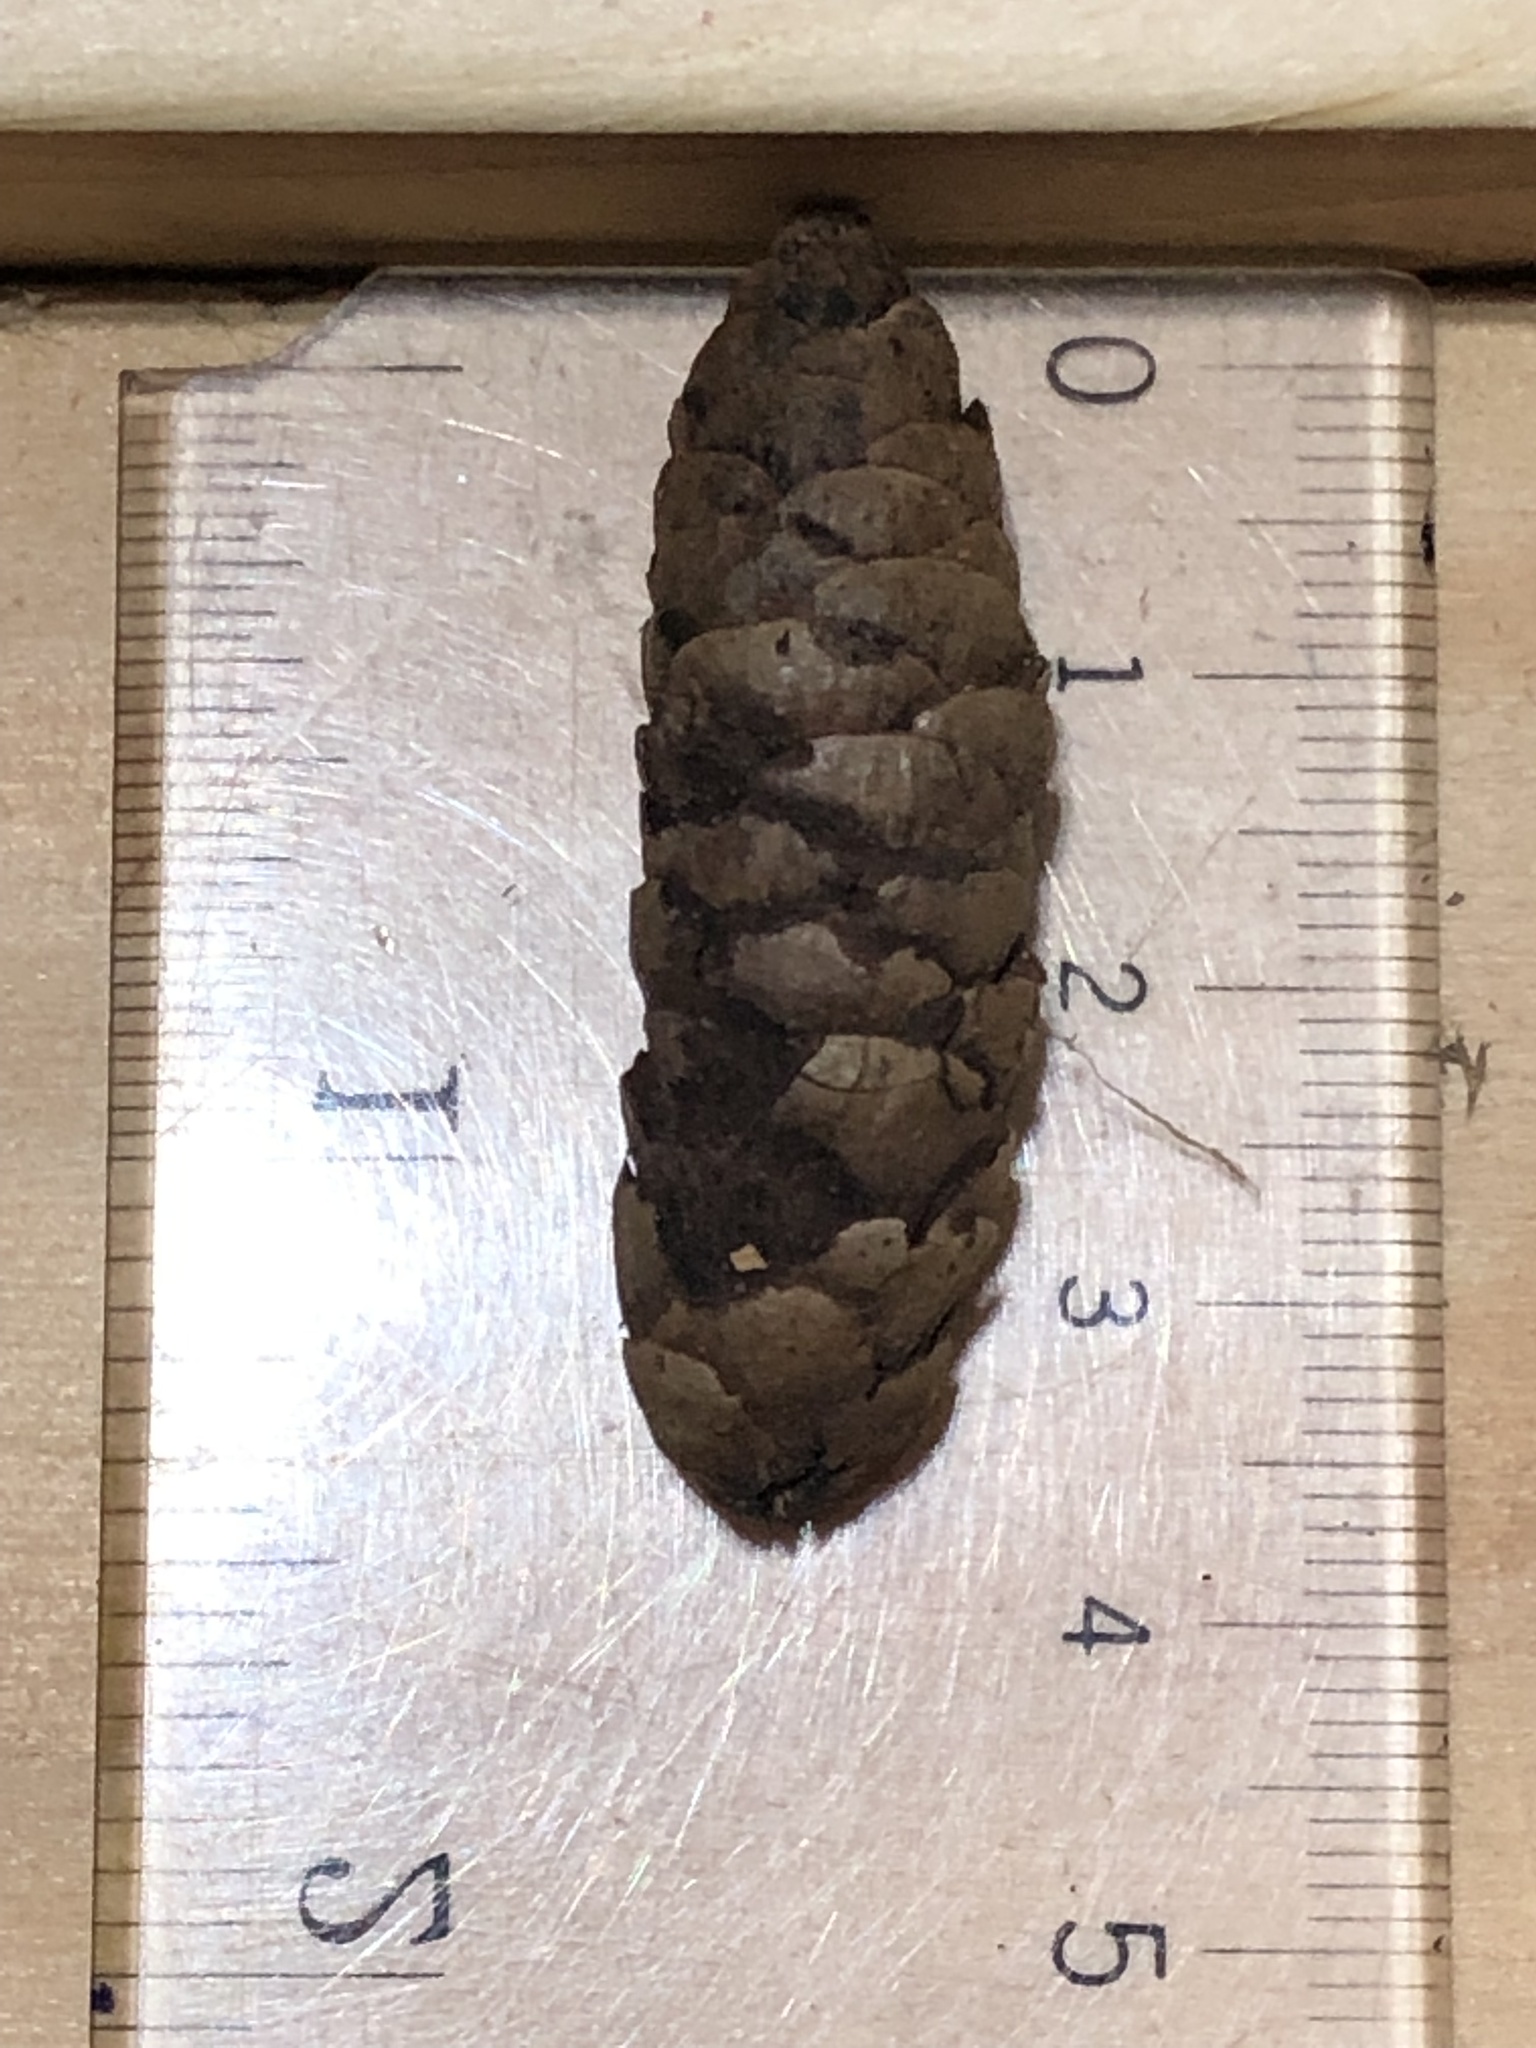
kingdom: Plantae
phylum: Tracheophyta
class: Pinopsida
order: Pinales
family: Pinaceae
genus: Picea
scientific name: Picea glauca
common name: White spruce
